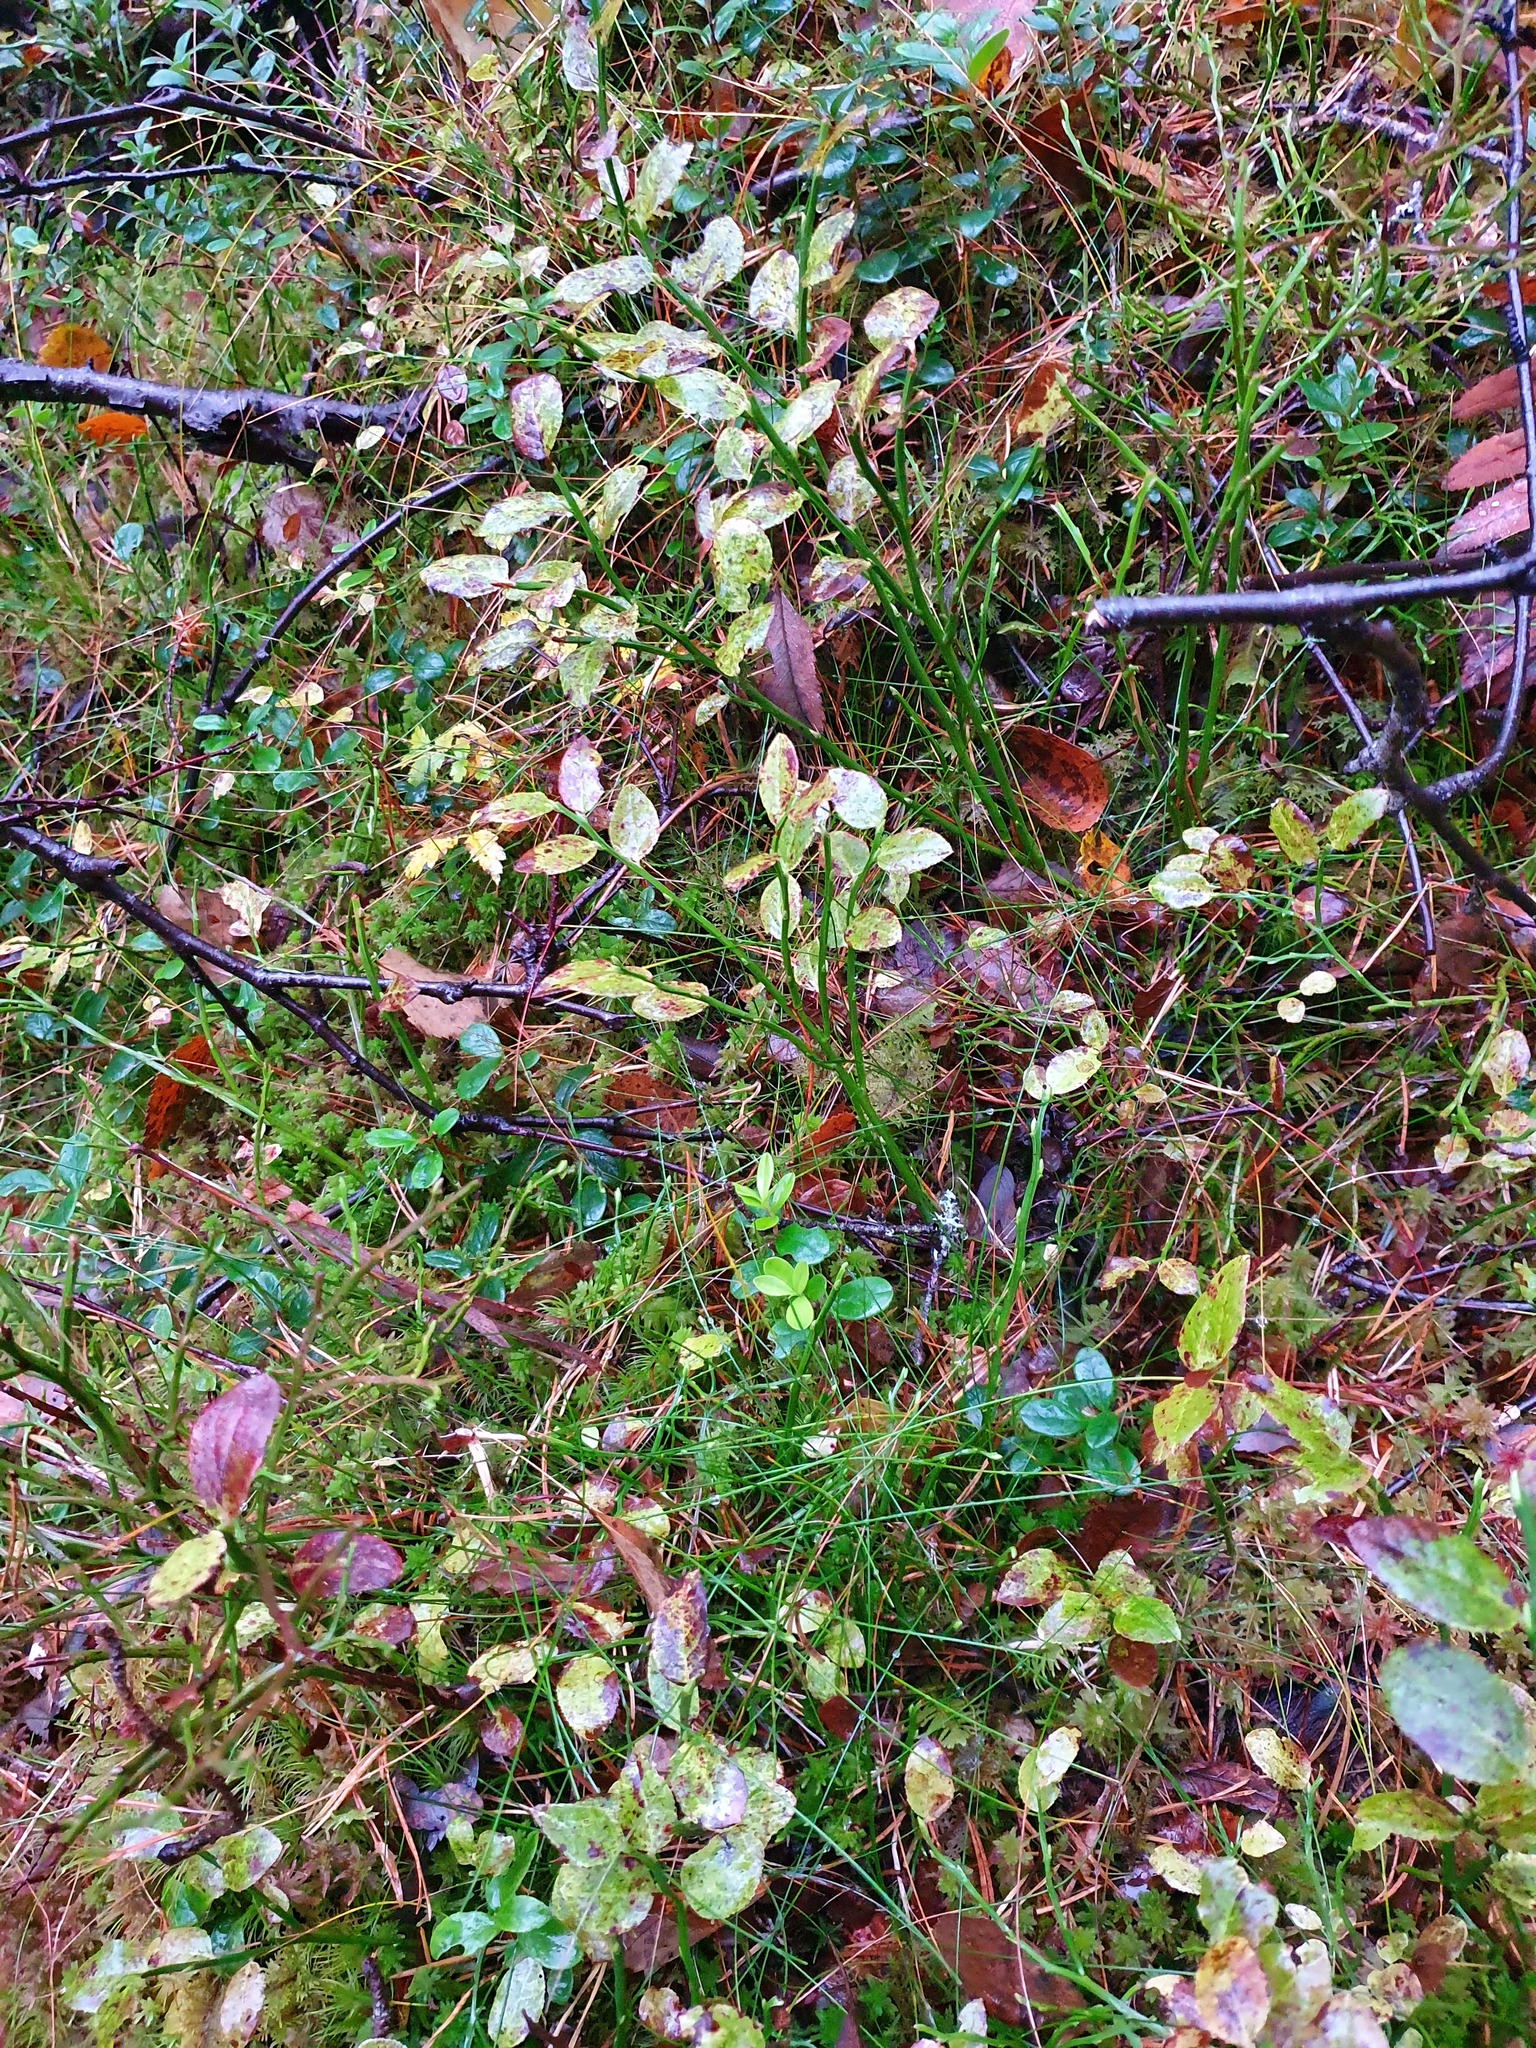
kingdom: Plantae
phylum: Tracheophyta
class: Magnoliopsida
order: Ericales
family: Ericaceae
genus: Vaccinium
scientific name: Vaccinium myrtillus
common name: Bilberry
